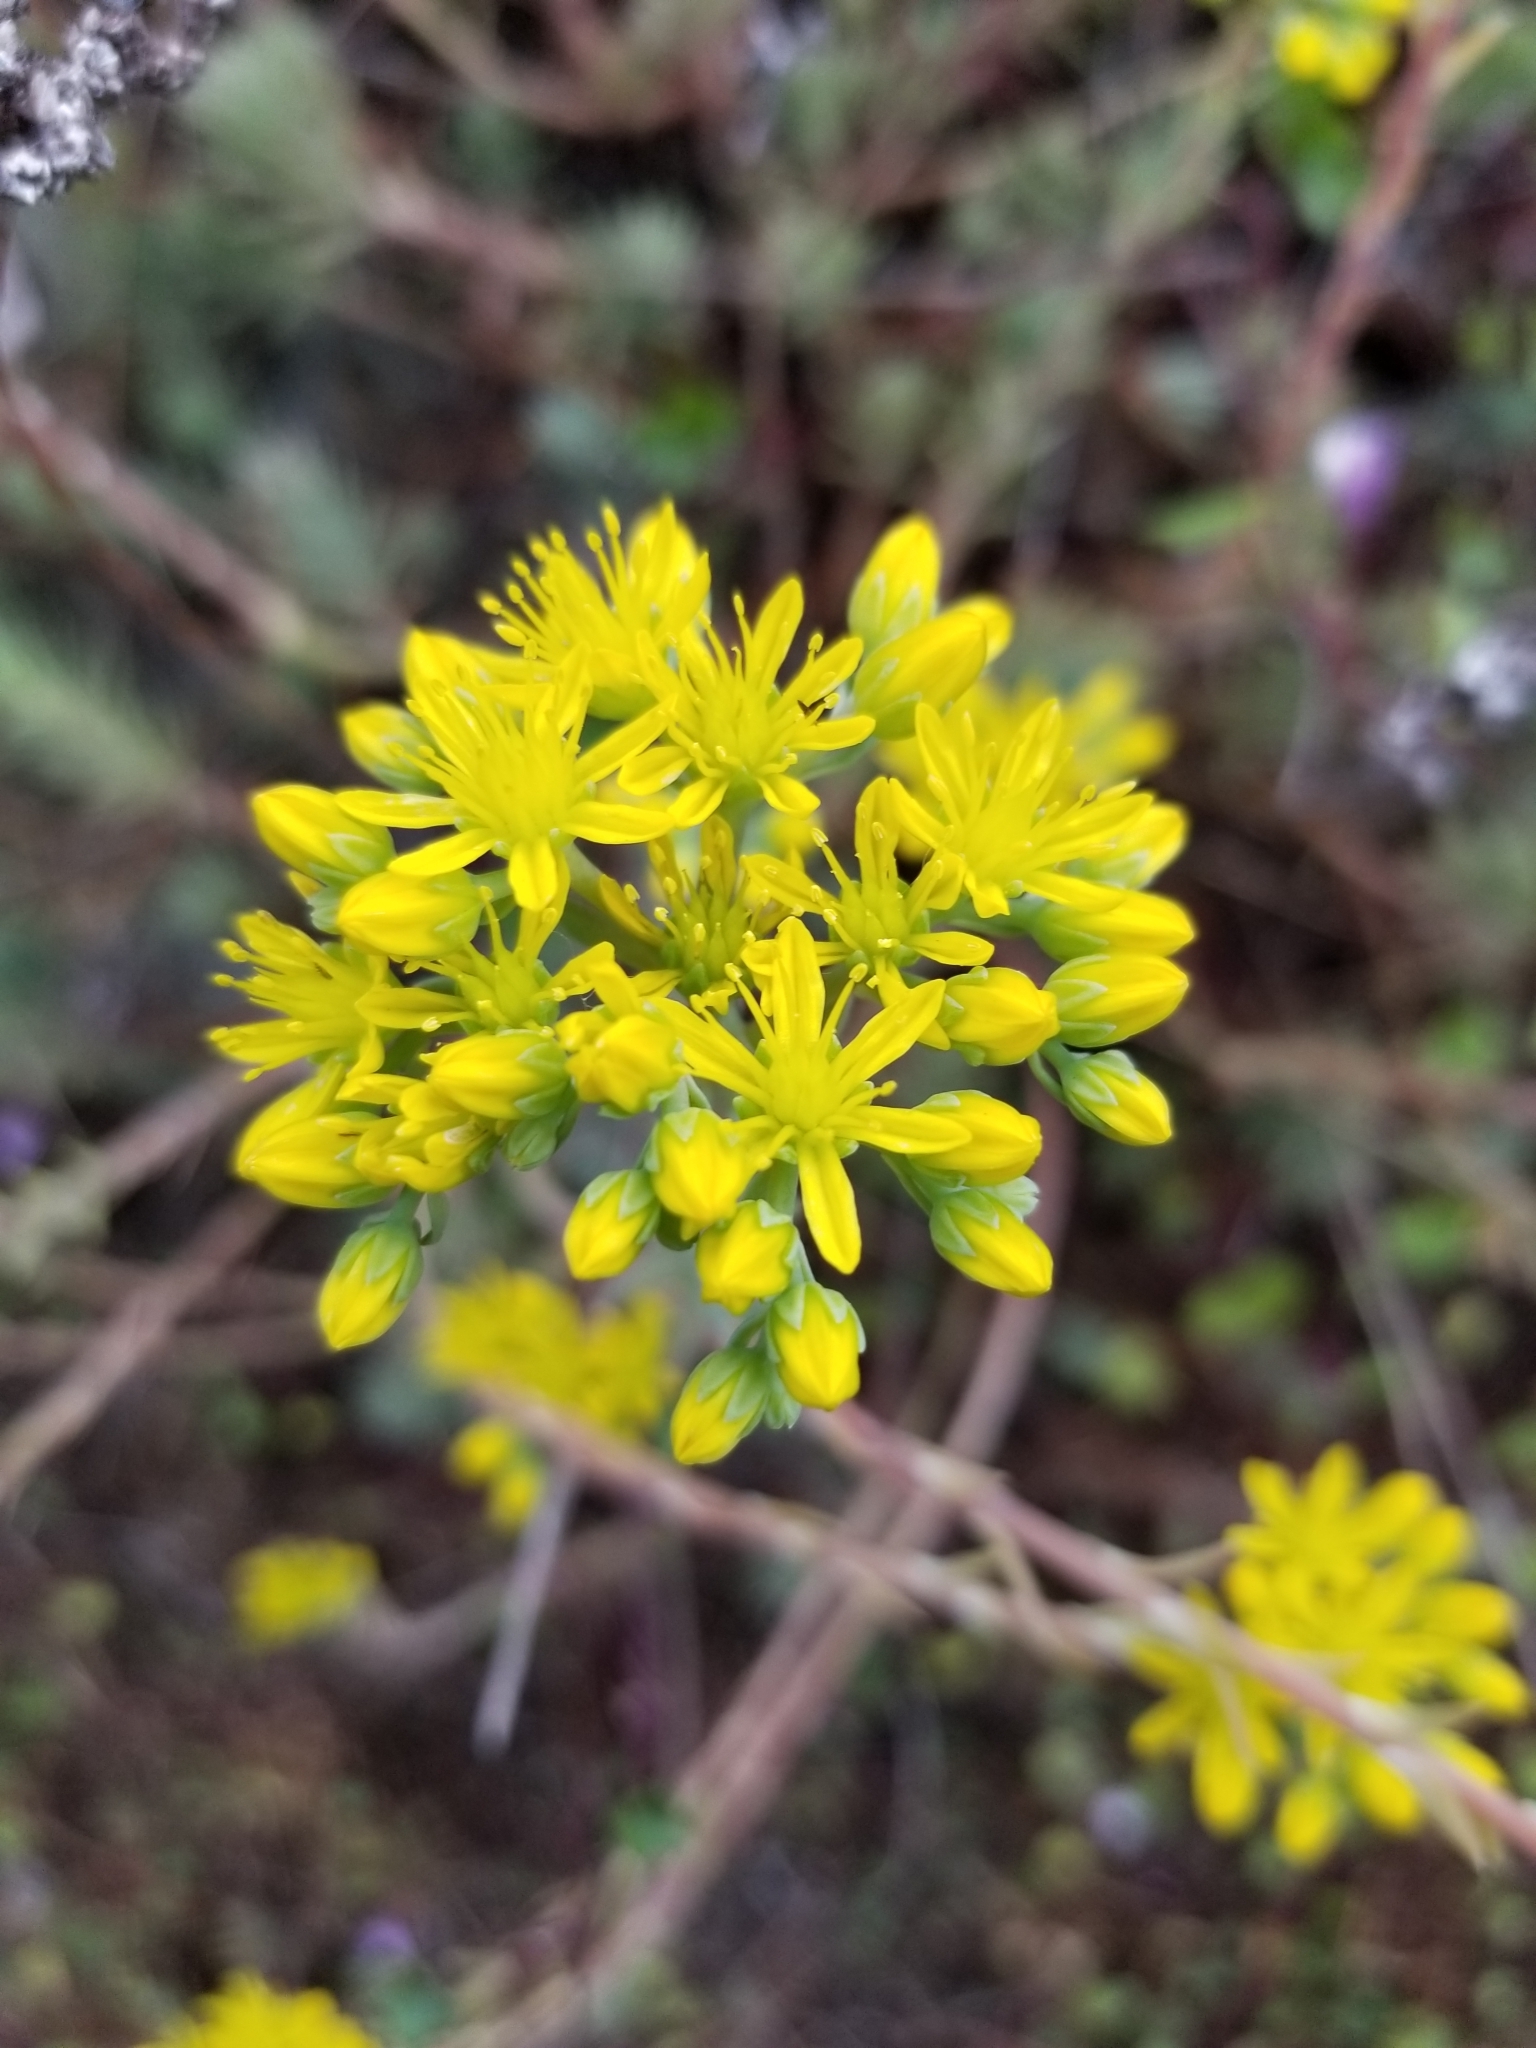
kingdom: Plantae
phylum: Tracheophyta
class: Magnoliopsida
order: Saxifragales
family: Crassulaceae
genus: Petrosedum
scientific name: Petrosedum rupestre
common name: Jenny's stonecrop
